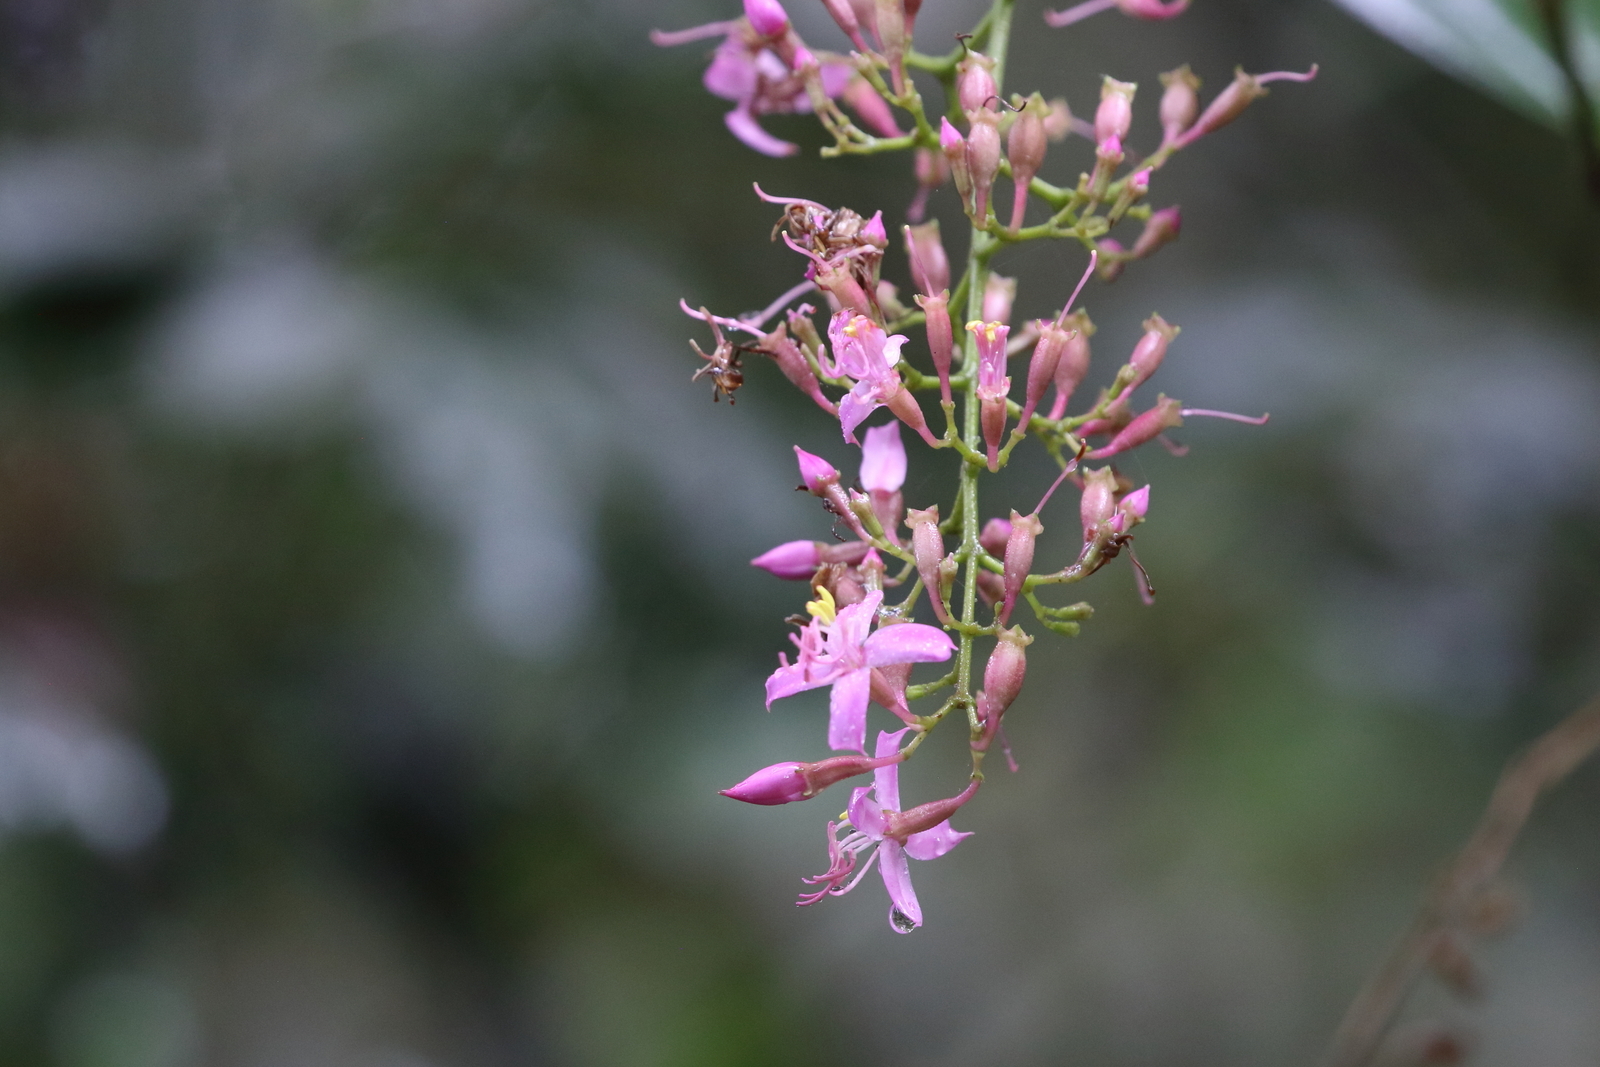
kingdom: Plantae
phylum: Tracheophyta
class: Magnoliopsida
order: Myrtales
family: Melastomataceae
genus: Oxyspora
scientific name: Oxyspora paniculata
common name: Bristletips
